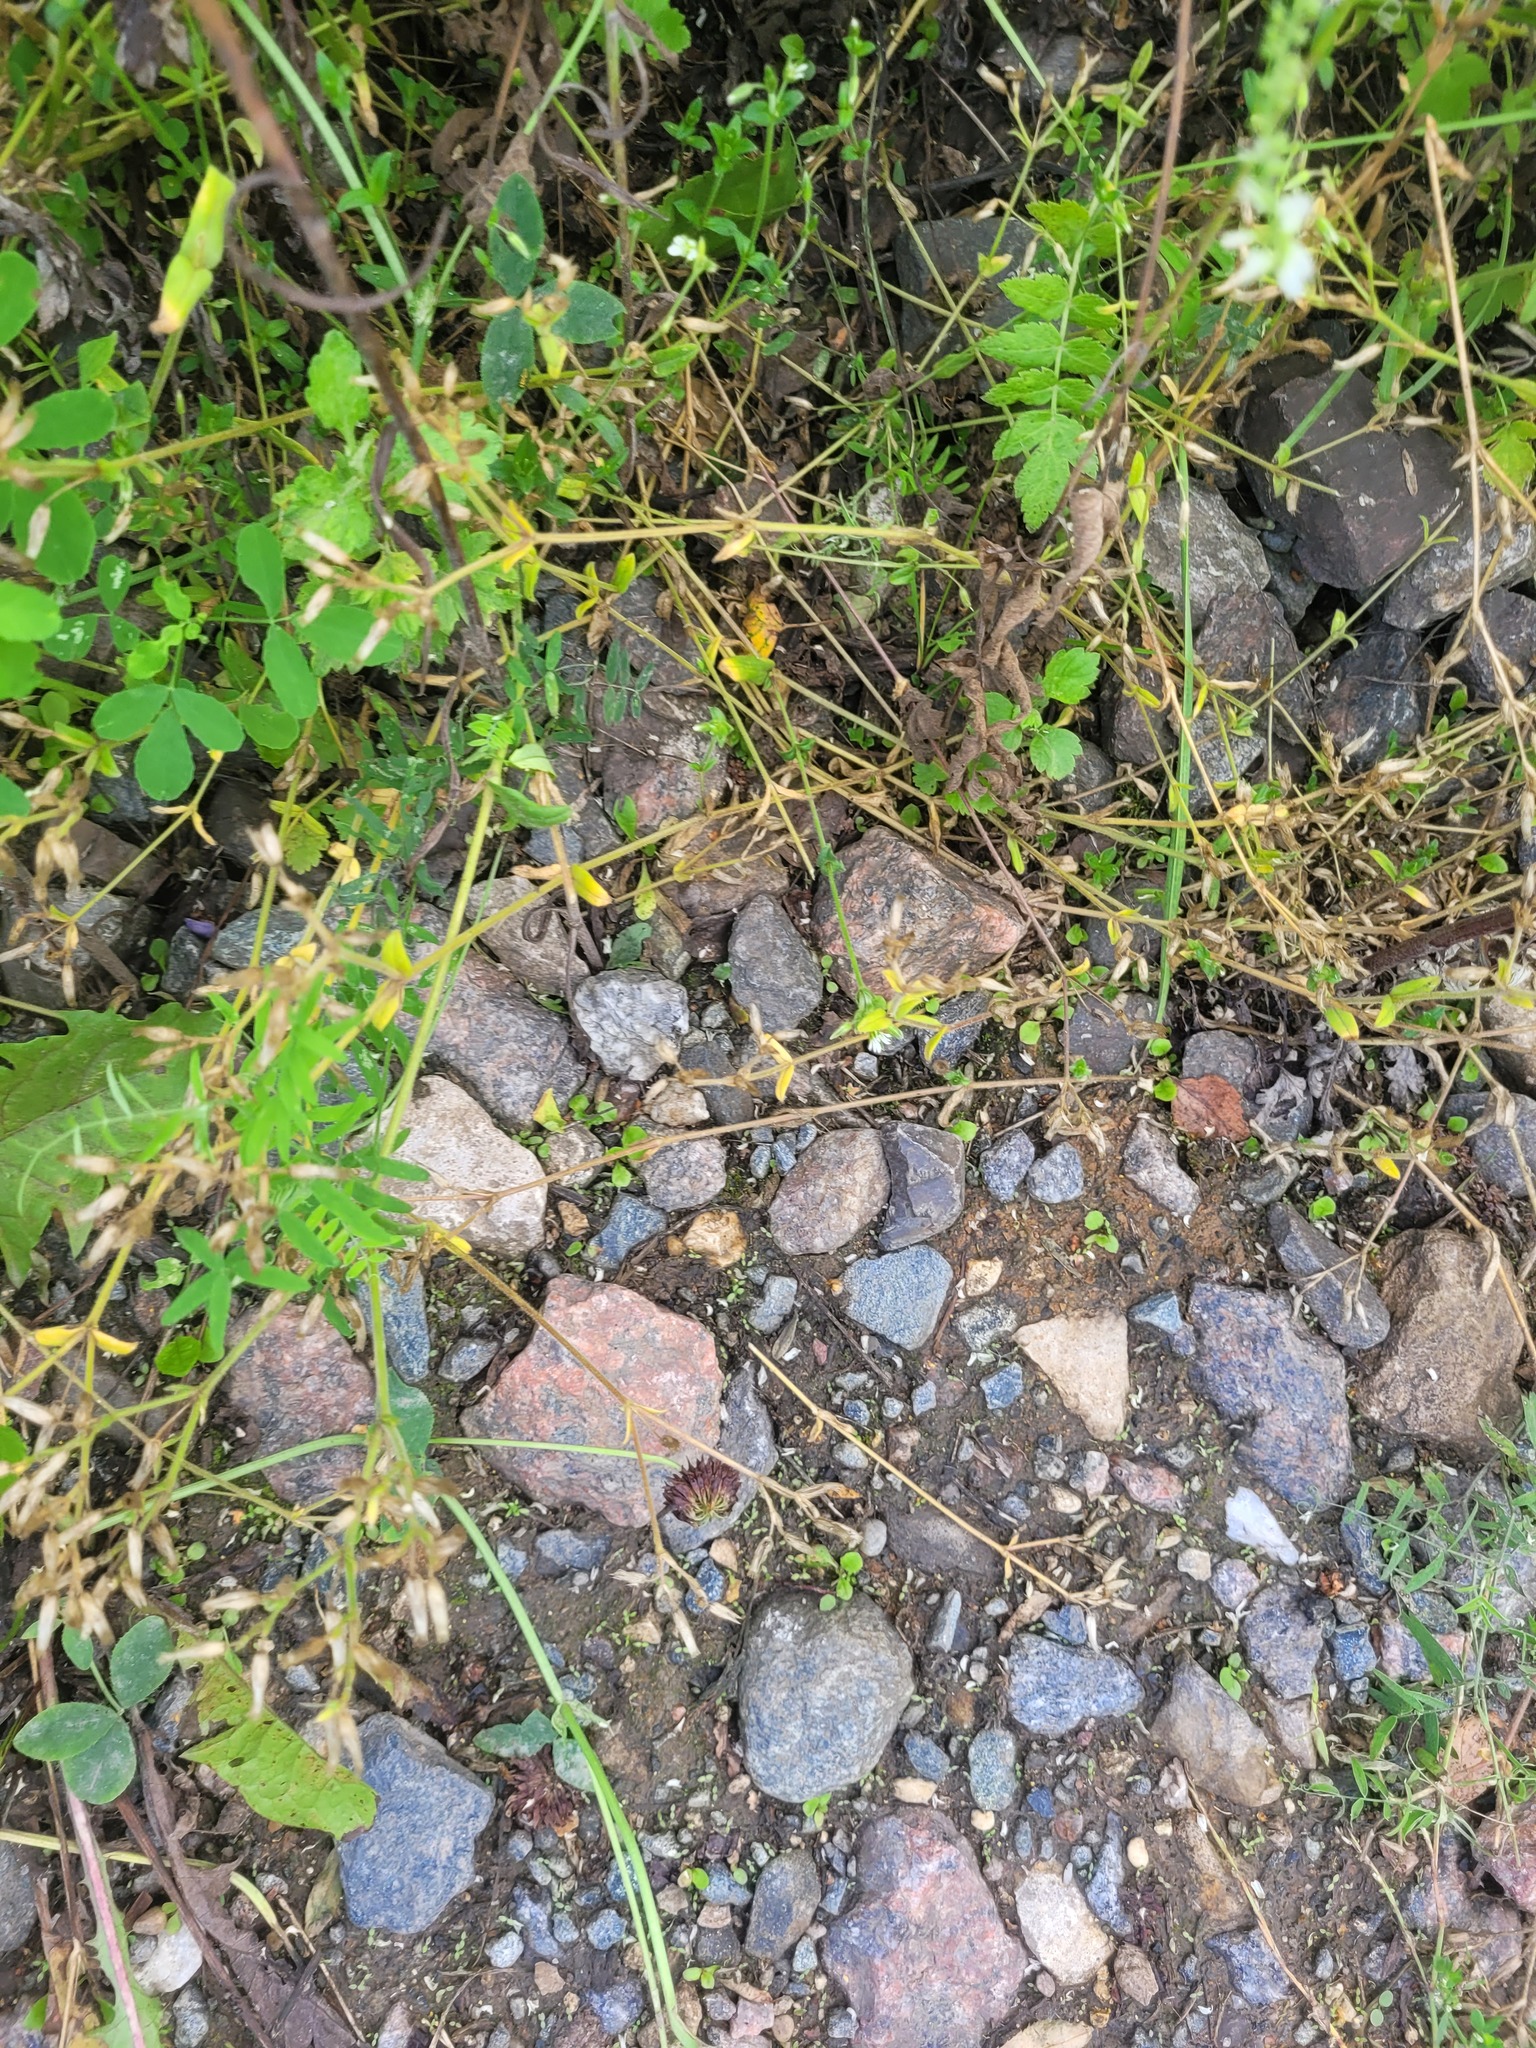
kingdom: Plantae
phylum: Tracheophyta
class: Magnoliopsida
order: Caryophyllales
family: Caryophyllaceae
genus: Cerastium
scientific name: Cerastium holosteoides
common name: Big chickweed
